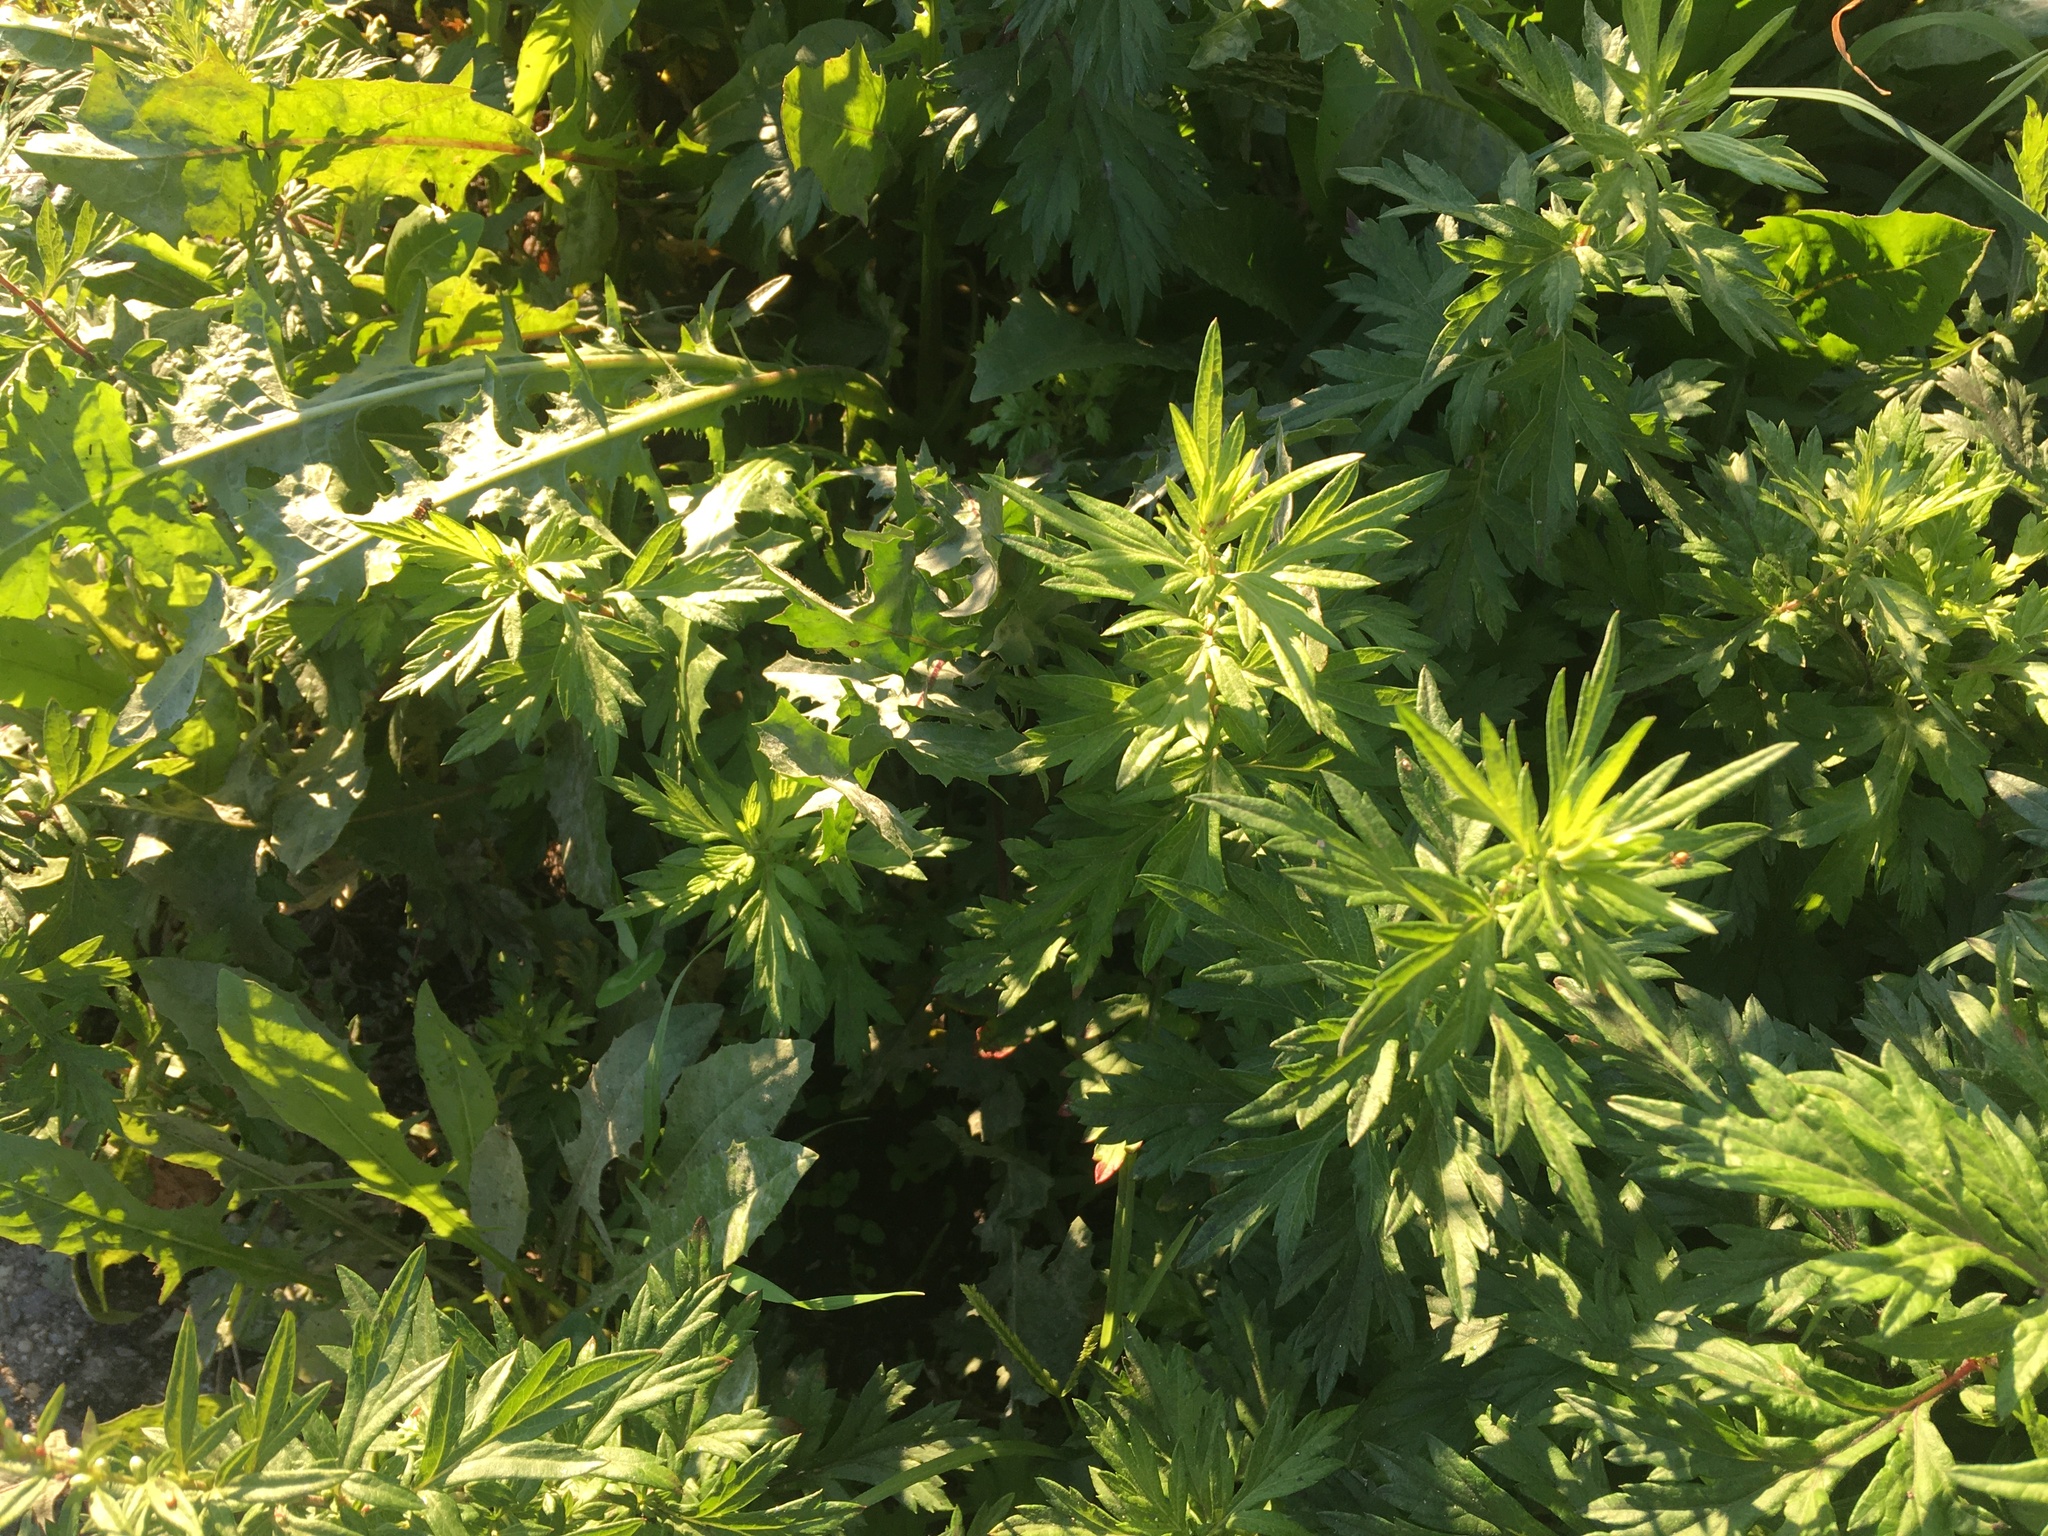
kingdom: Plantae
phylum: Tracheophyta
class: Magnoliopsida
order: Asterales
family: Asteraceae
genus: Artemisia
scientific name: Artemisia vulgaris
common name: Mugwort
